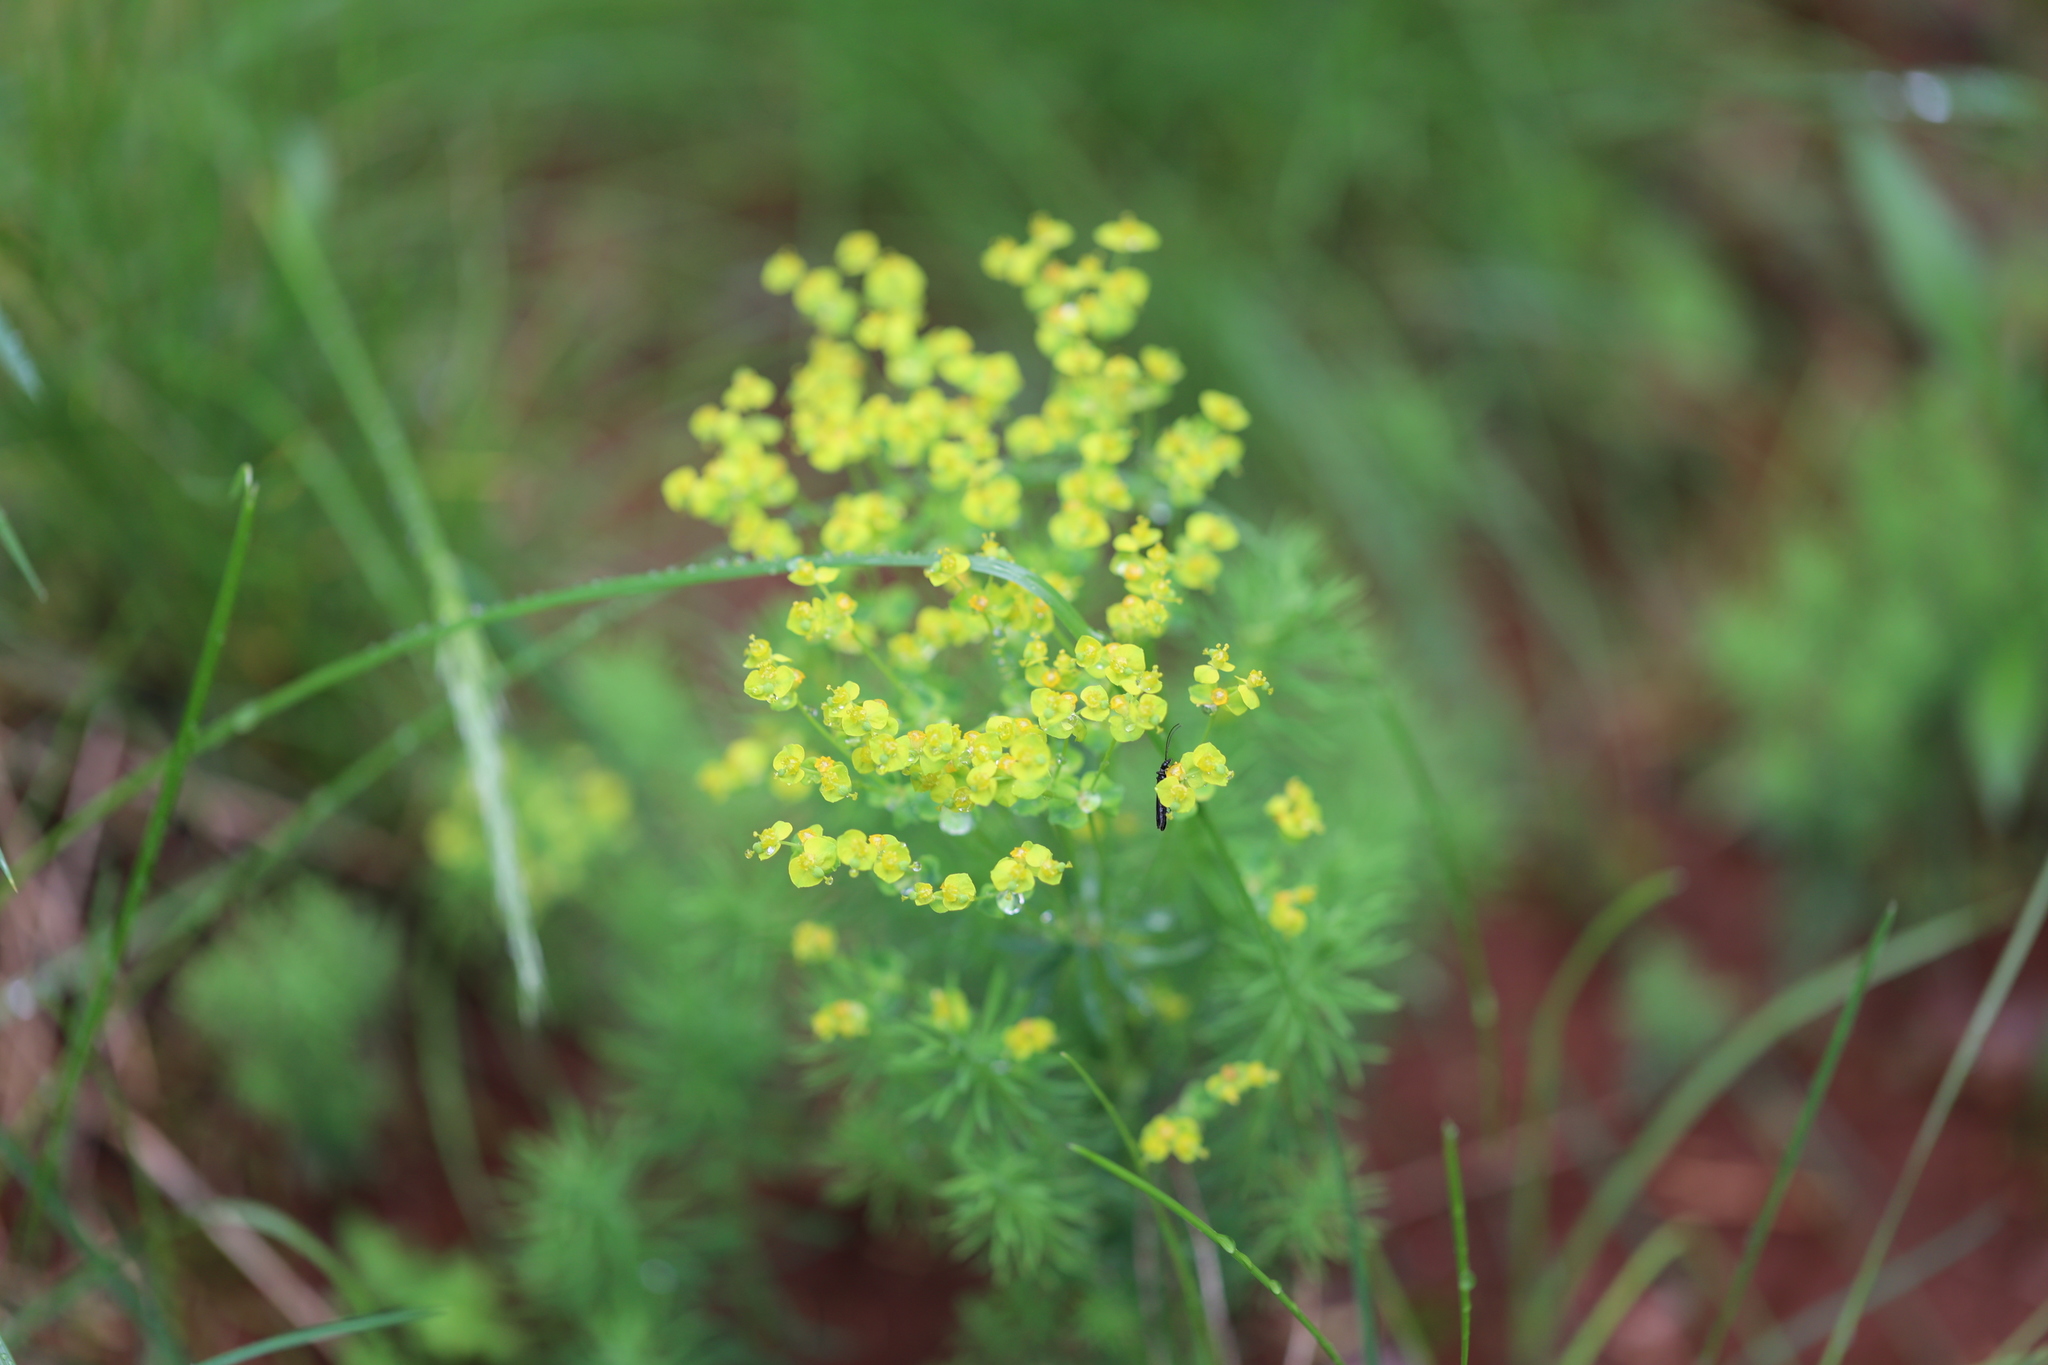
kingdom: Plantae
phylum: Tracheophyta
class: Magnoliopsida
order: Malpighiales
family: Euphorbiaceae
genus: Euphorbia
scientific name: Euphorbia cyparissias
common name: Cypress spurge
